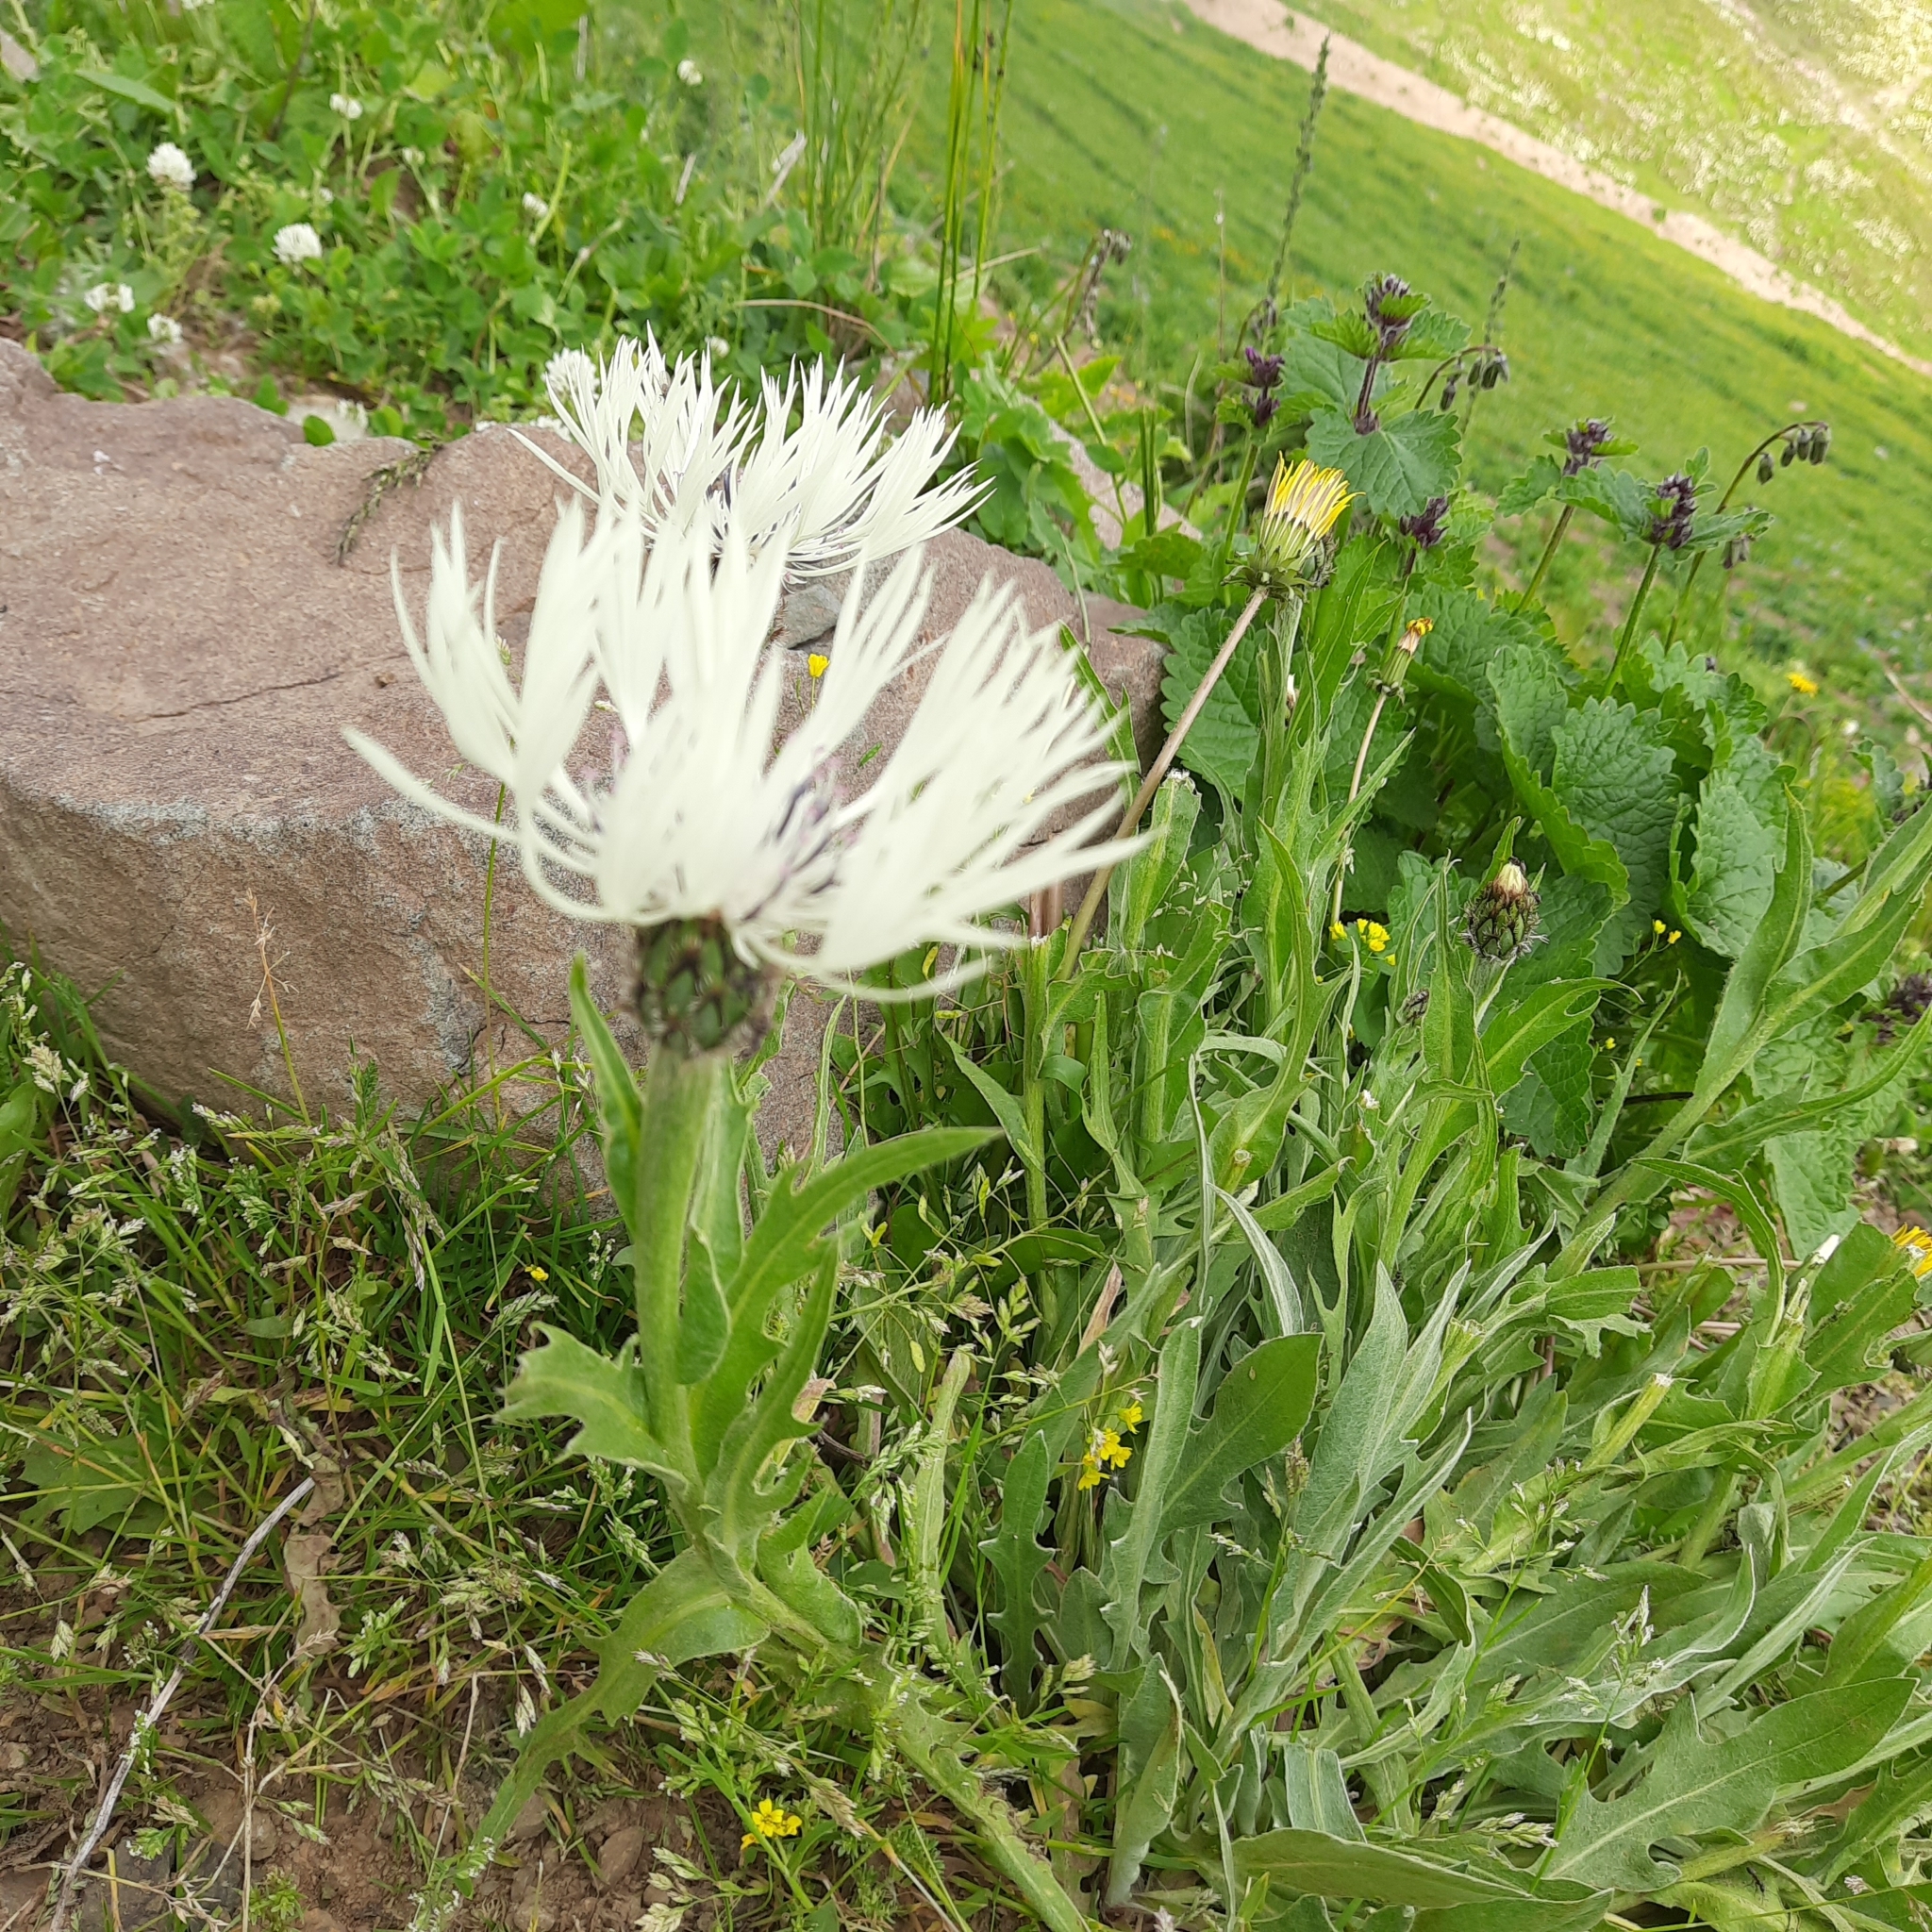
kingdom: Plantae
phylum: Tracheophyta
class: Magnoliopsida
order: Asterales
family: Asteraceae
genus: Centaurea
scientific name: Centaurea cheiranthifolia
